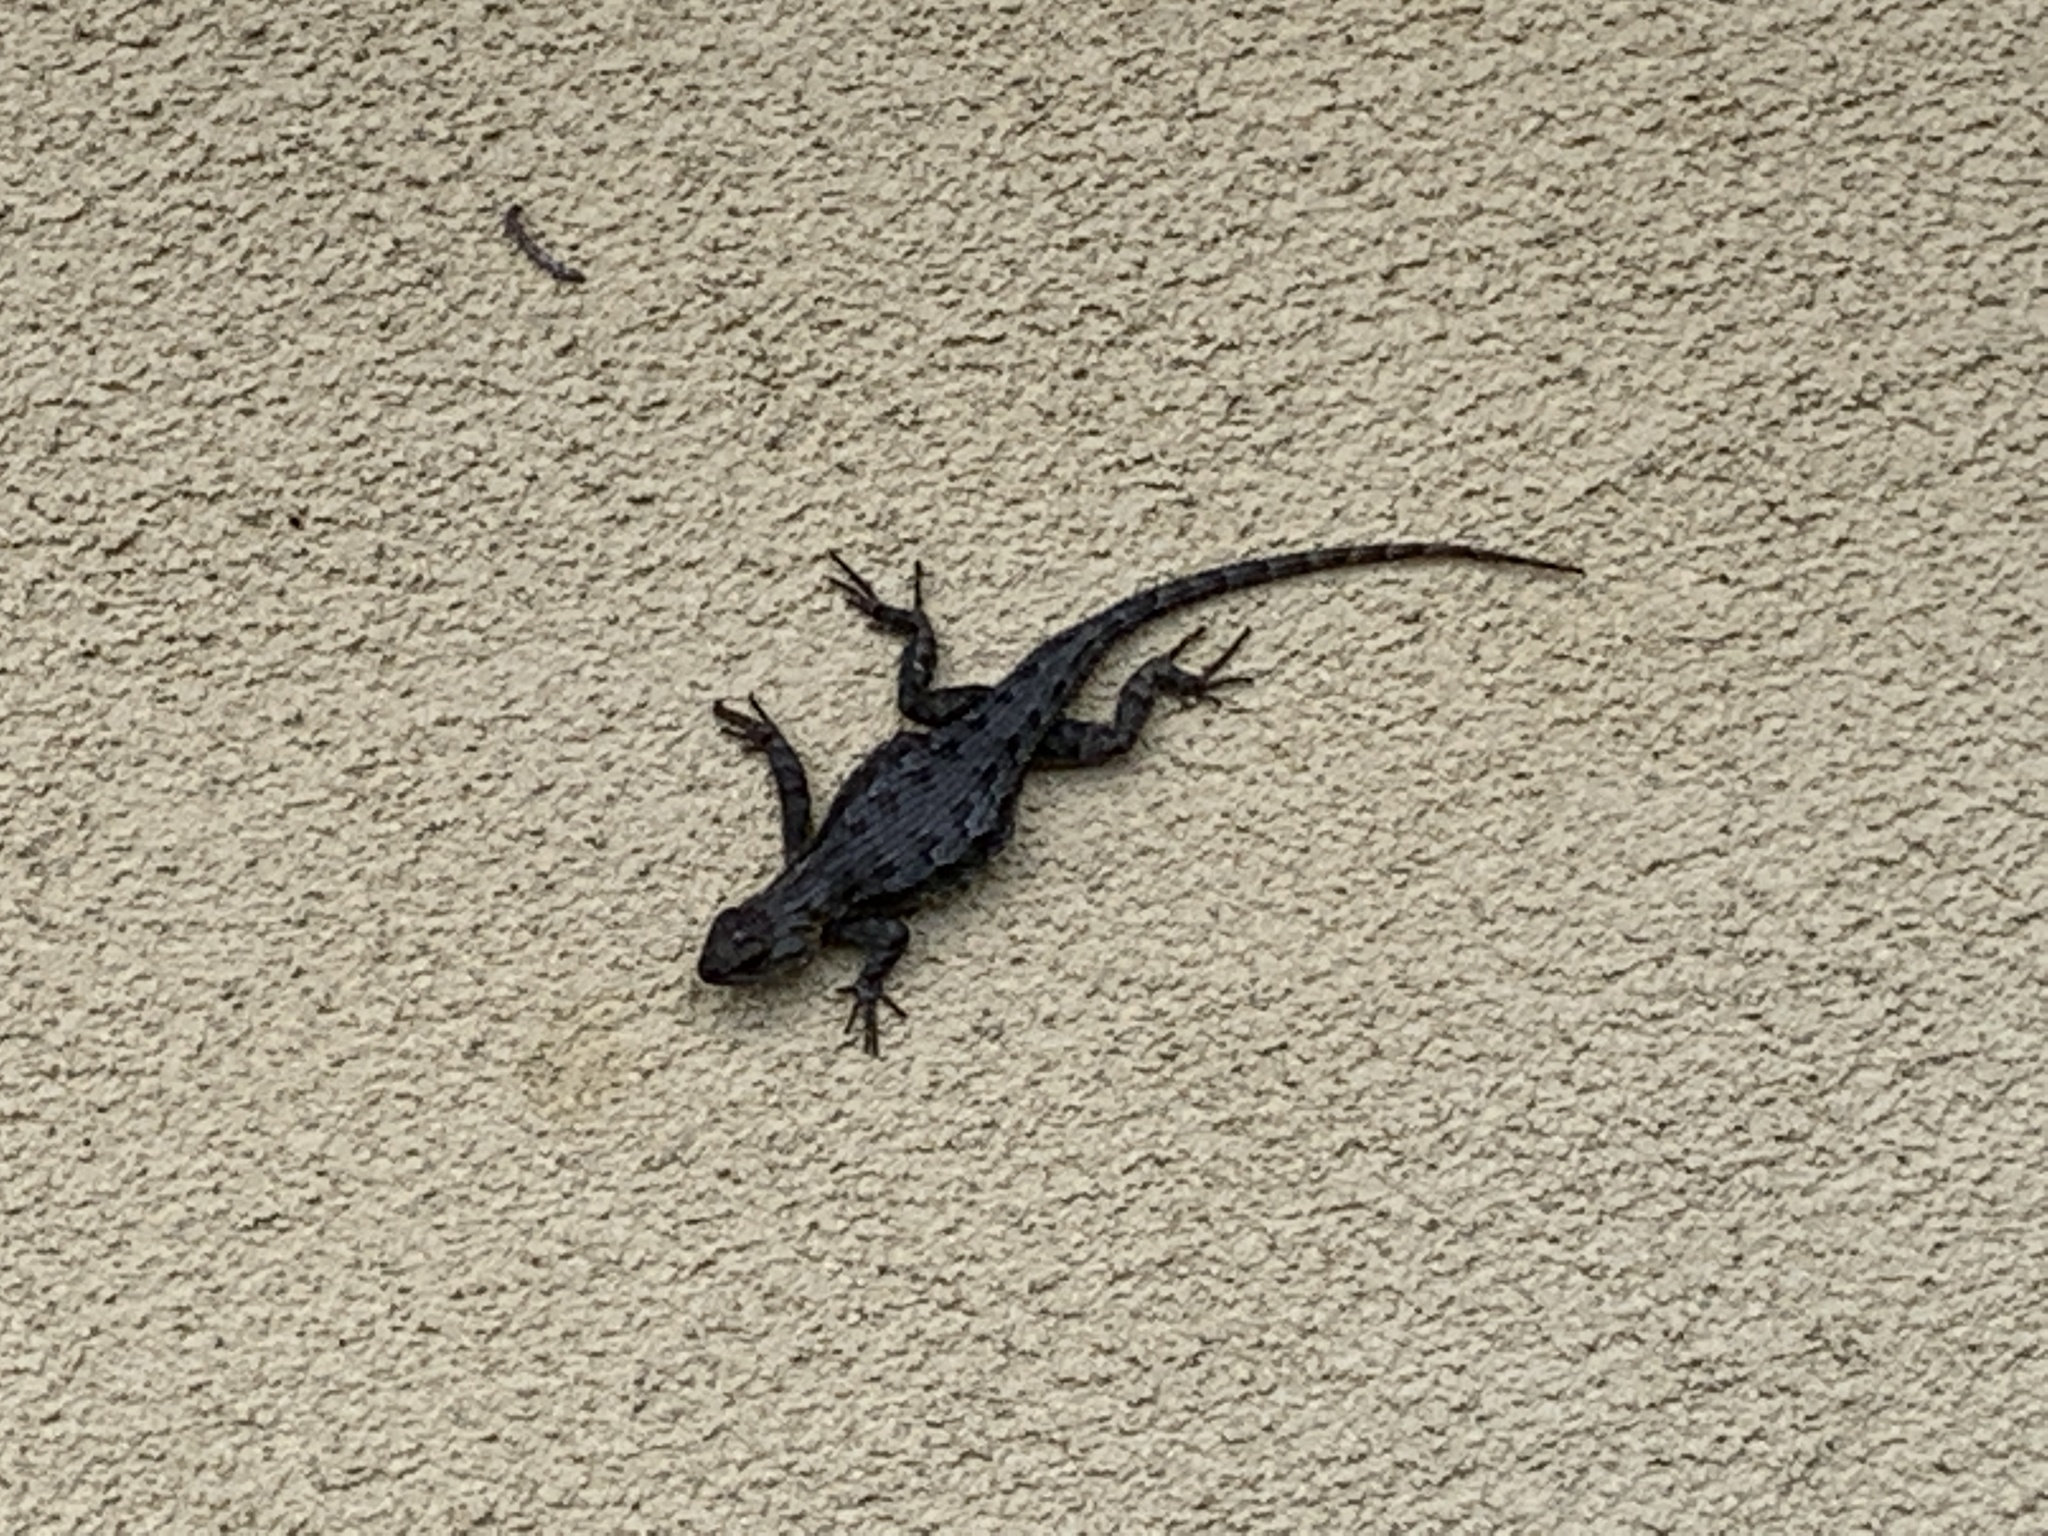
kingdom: Animalia
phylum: Chordata
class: Squamata
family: Phrynosomatidae
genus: Sceloporus
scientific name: Sceloporus occidentalis
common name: Western fence lizard
